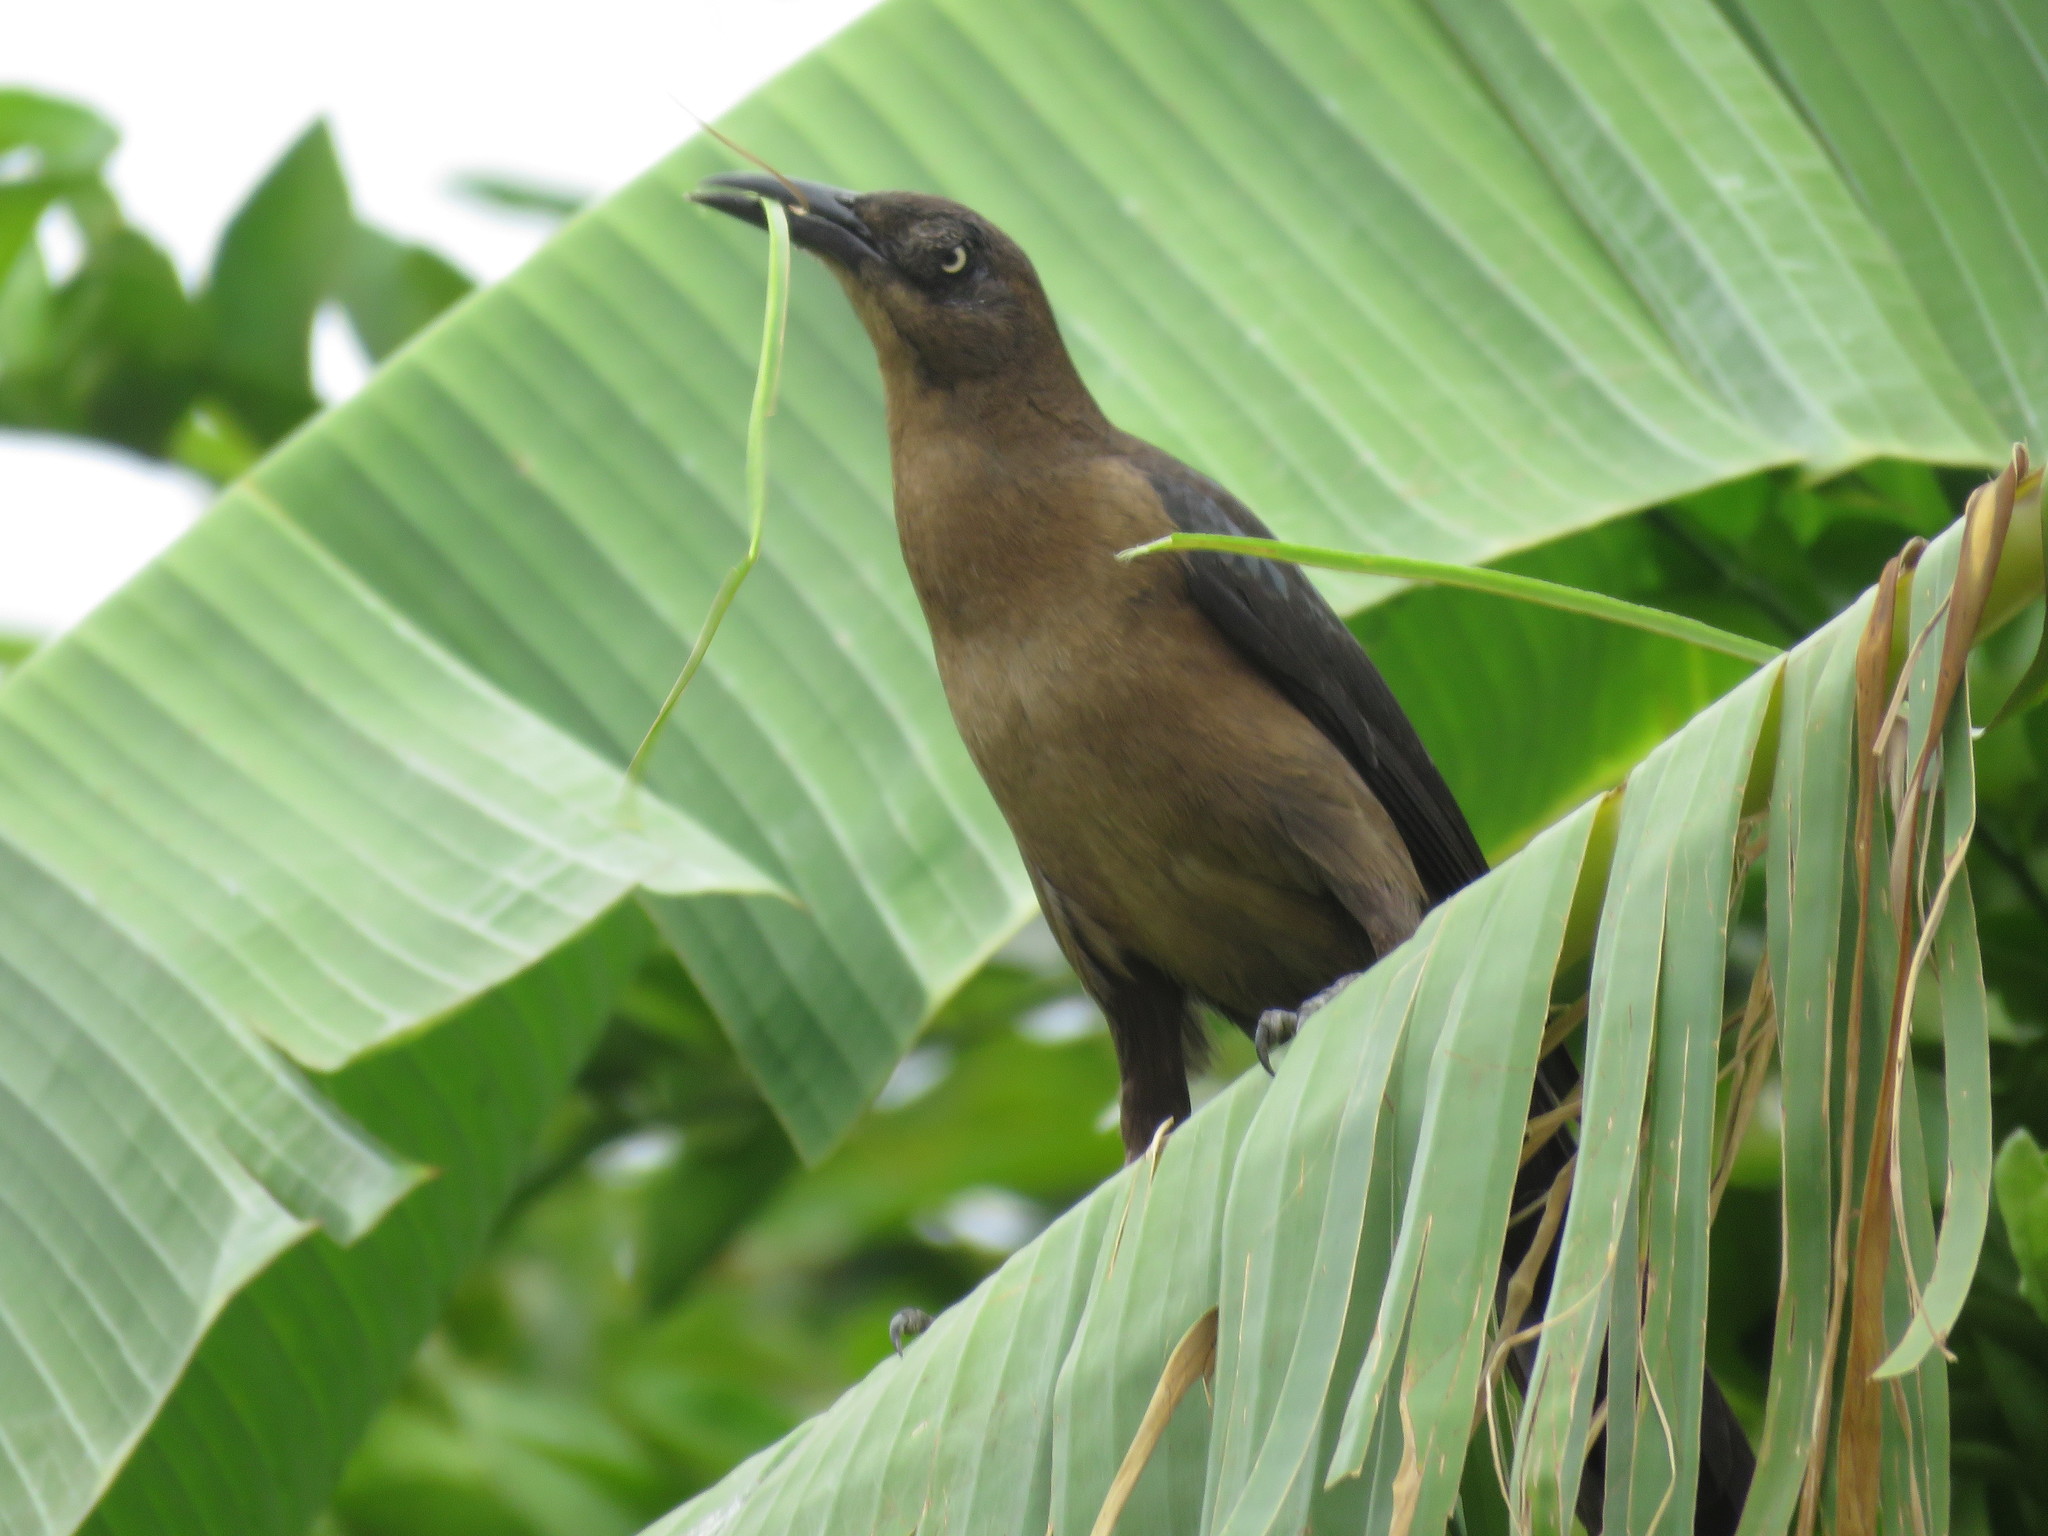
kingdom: Animalia
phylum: Chordata
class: Aves
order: Passeriformes
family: Icteridae
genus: Quiscalus
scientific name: Quiscalus mexicanus
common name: Great-tailed grackle
